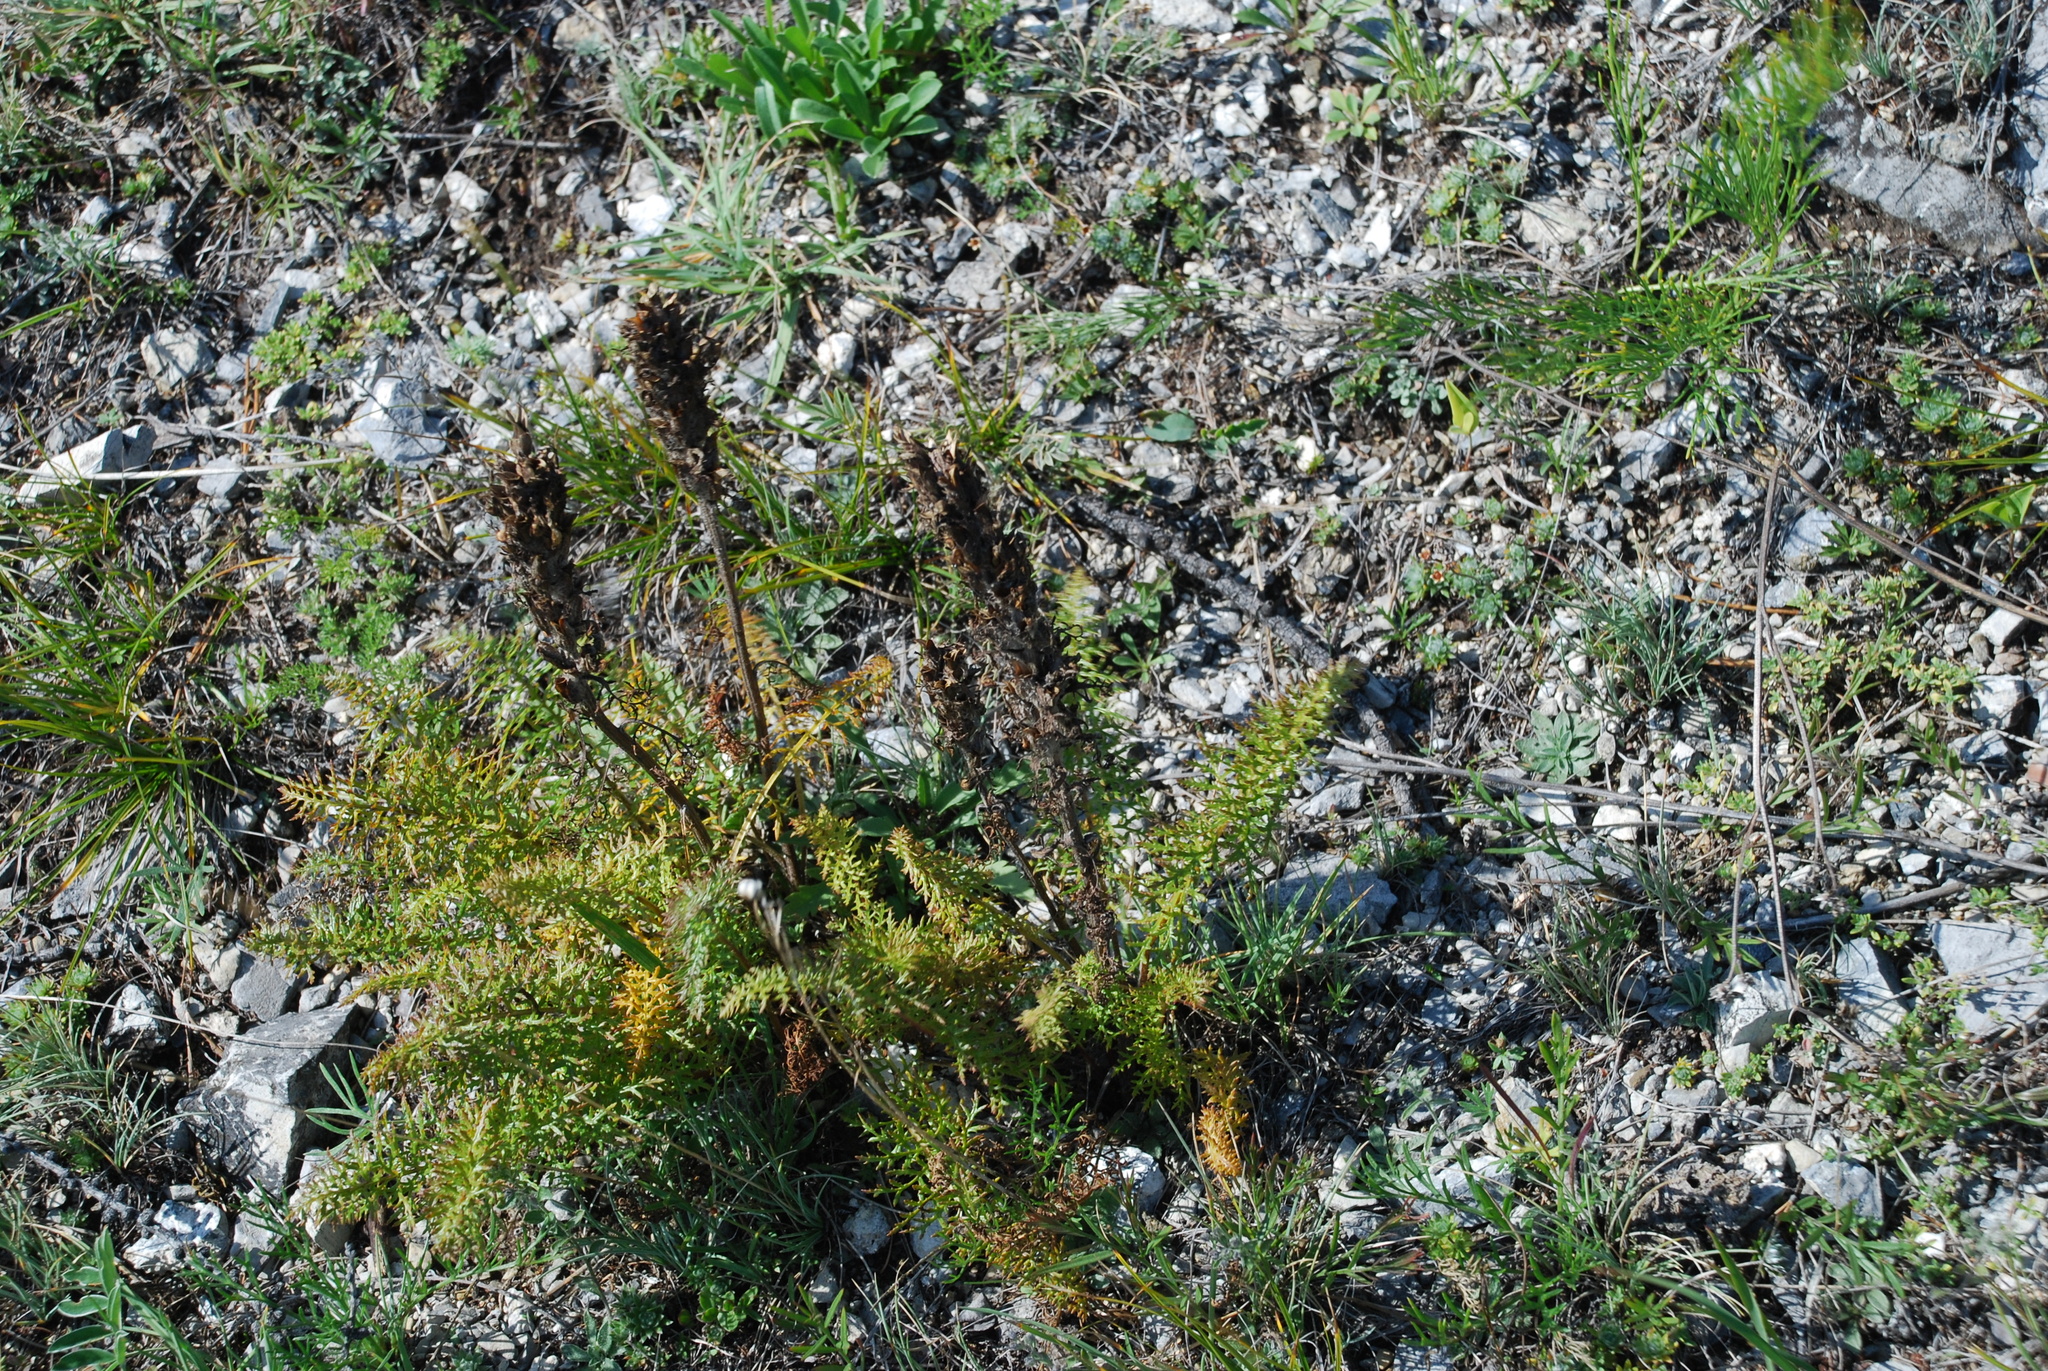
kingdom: Plantae
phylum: Tracheophyta
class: Magnoliopsida
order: Lamiales
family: Orobanchaceae
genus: Pedicularis
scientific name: Pedicularis rubens
